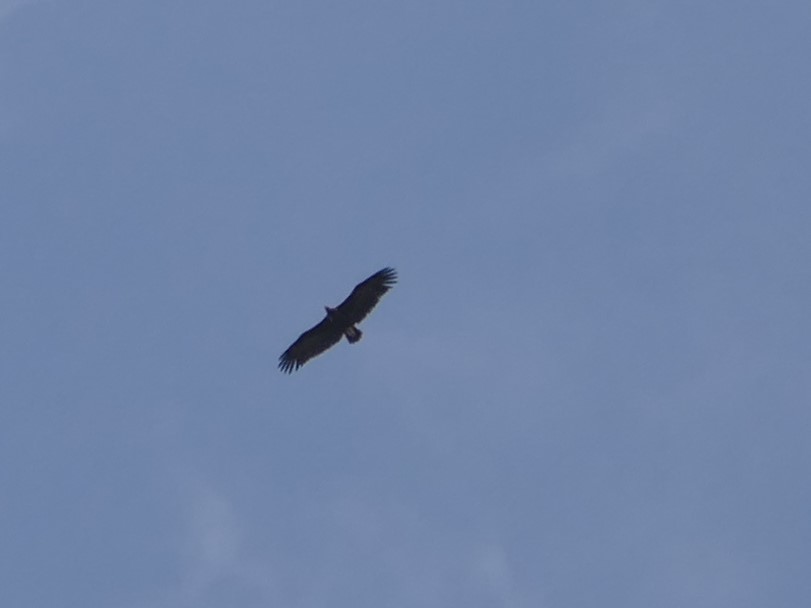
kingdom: Animalia
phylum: Chordata
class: Aves
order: Accipitriformes
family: Accipitridae
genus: Aegypius
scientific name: Aegypius monachus
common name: Cinereous vulture
